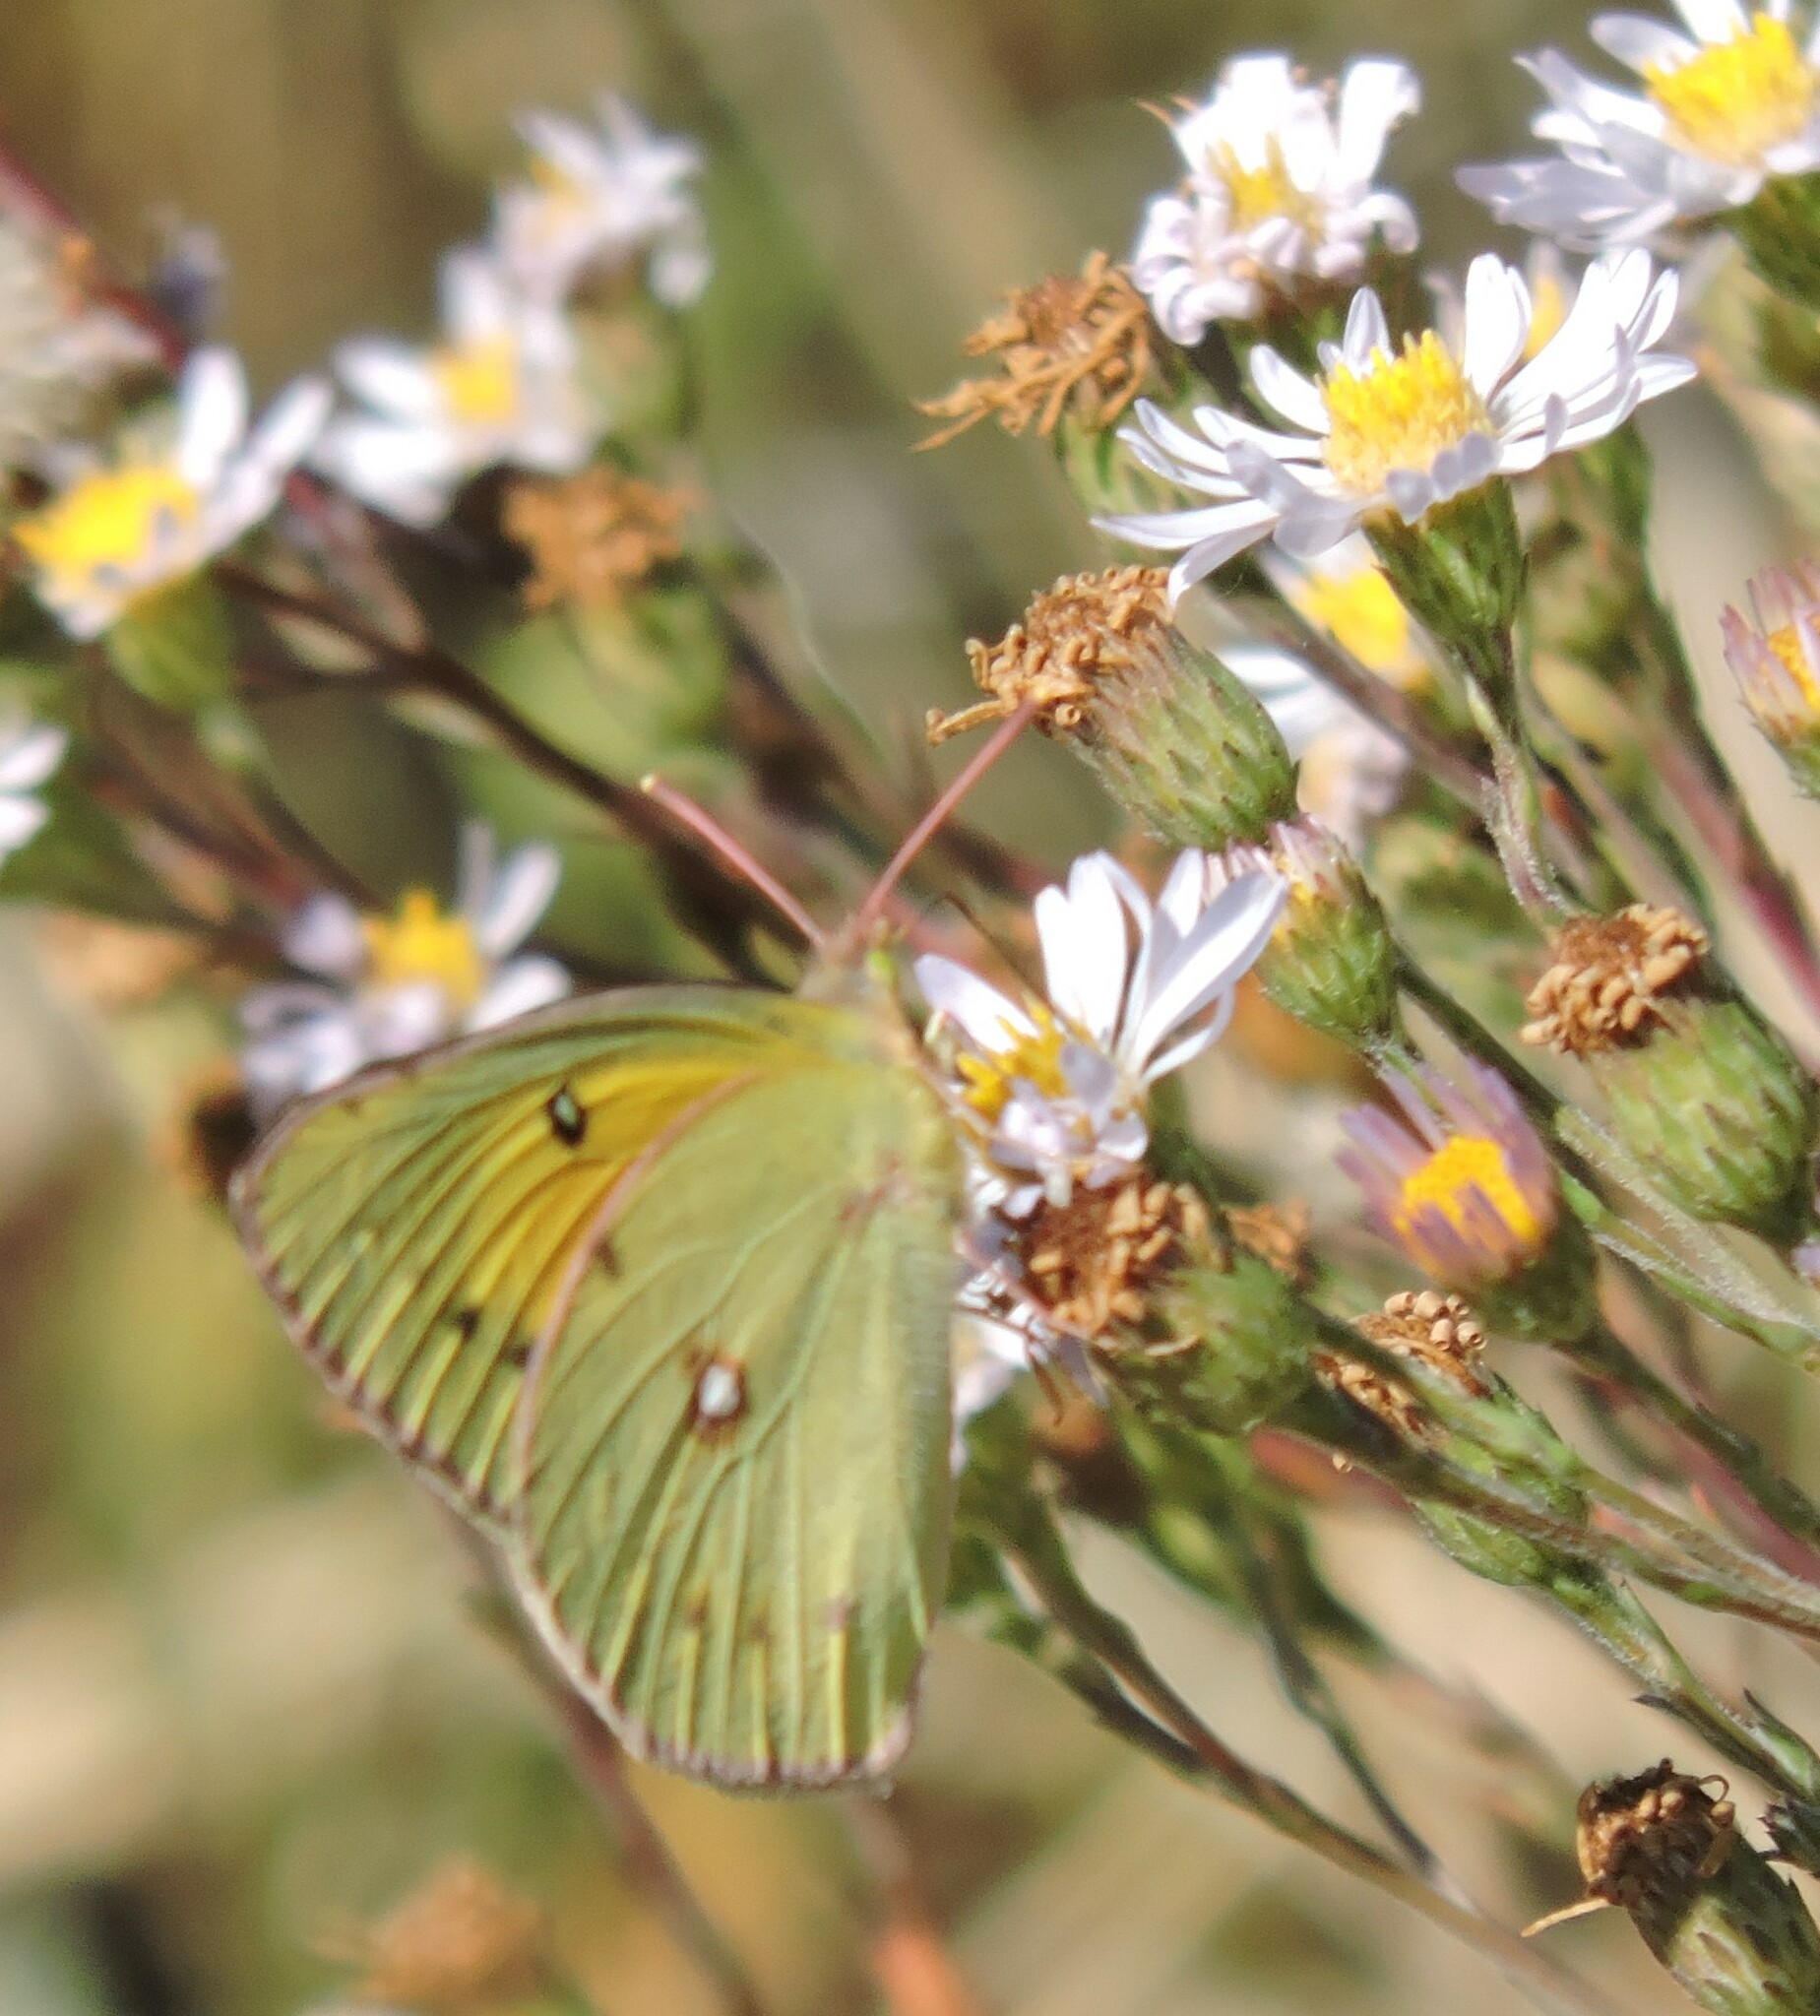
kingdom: Animalia
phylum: Arthropoda
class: Insecta
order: Lepidoptera
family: Pieridae
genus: Colias
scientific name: Colias eurytheme
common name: Alfalfa butterfly
